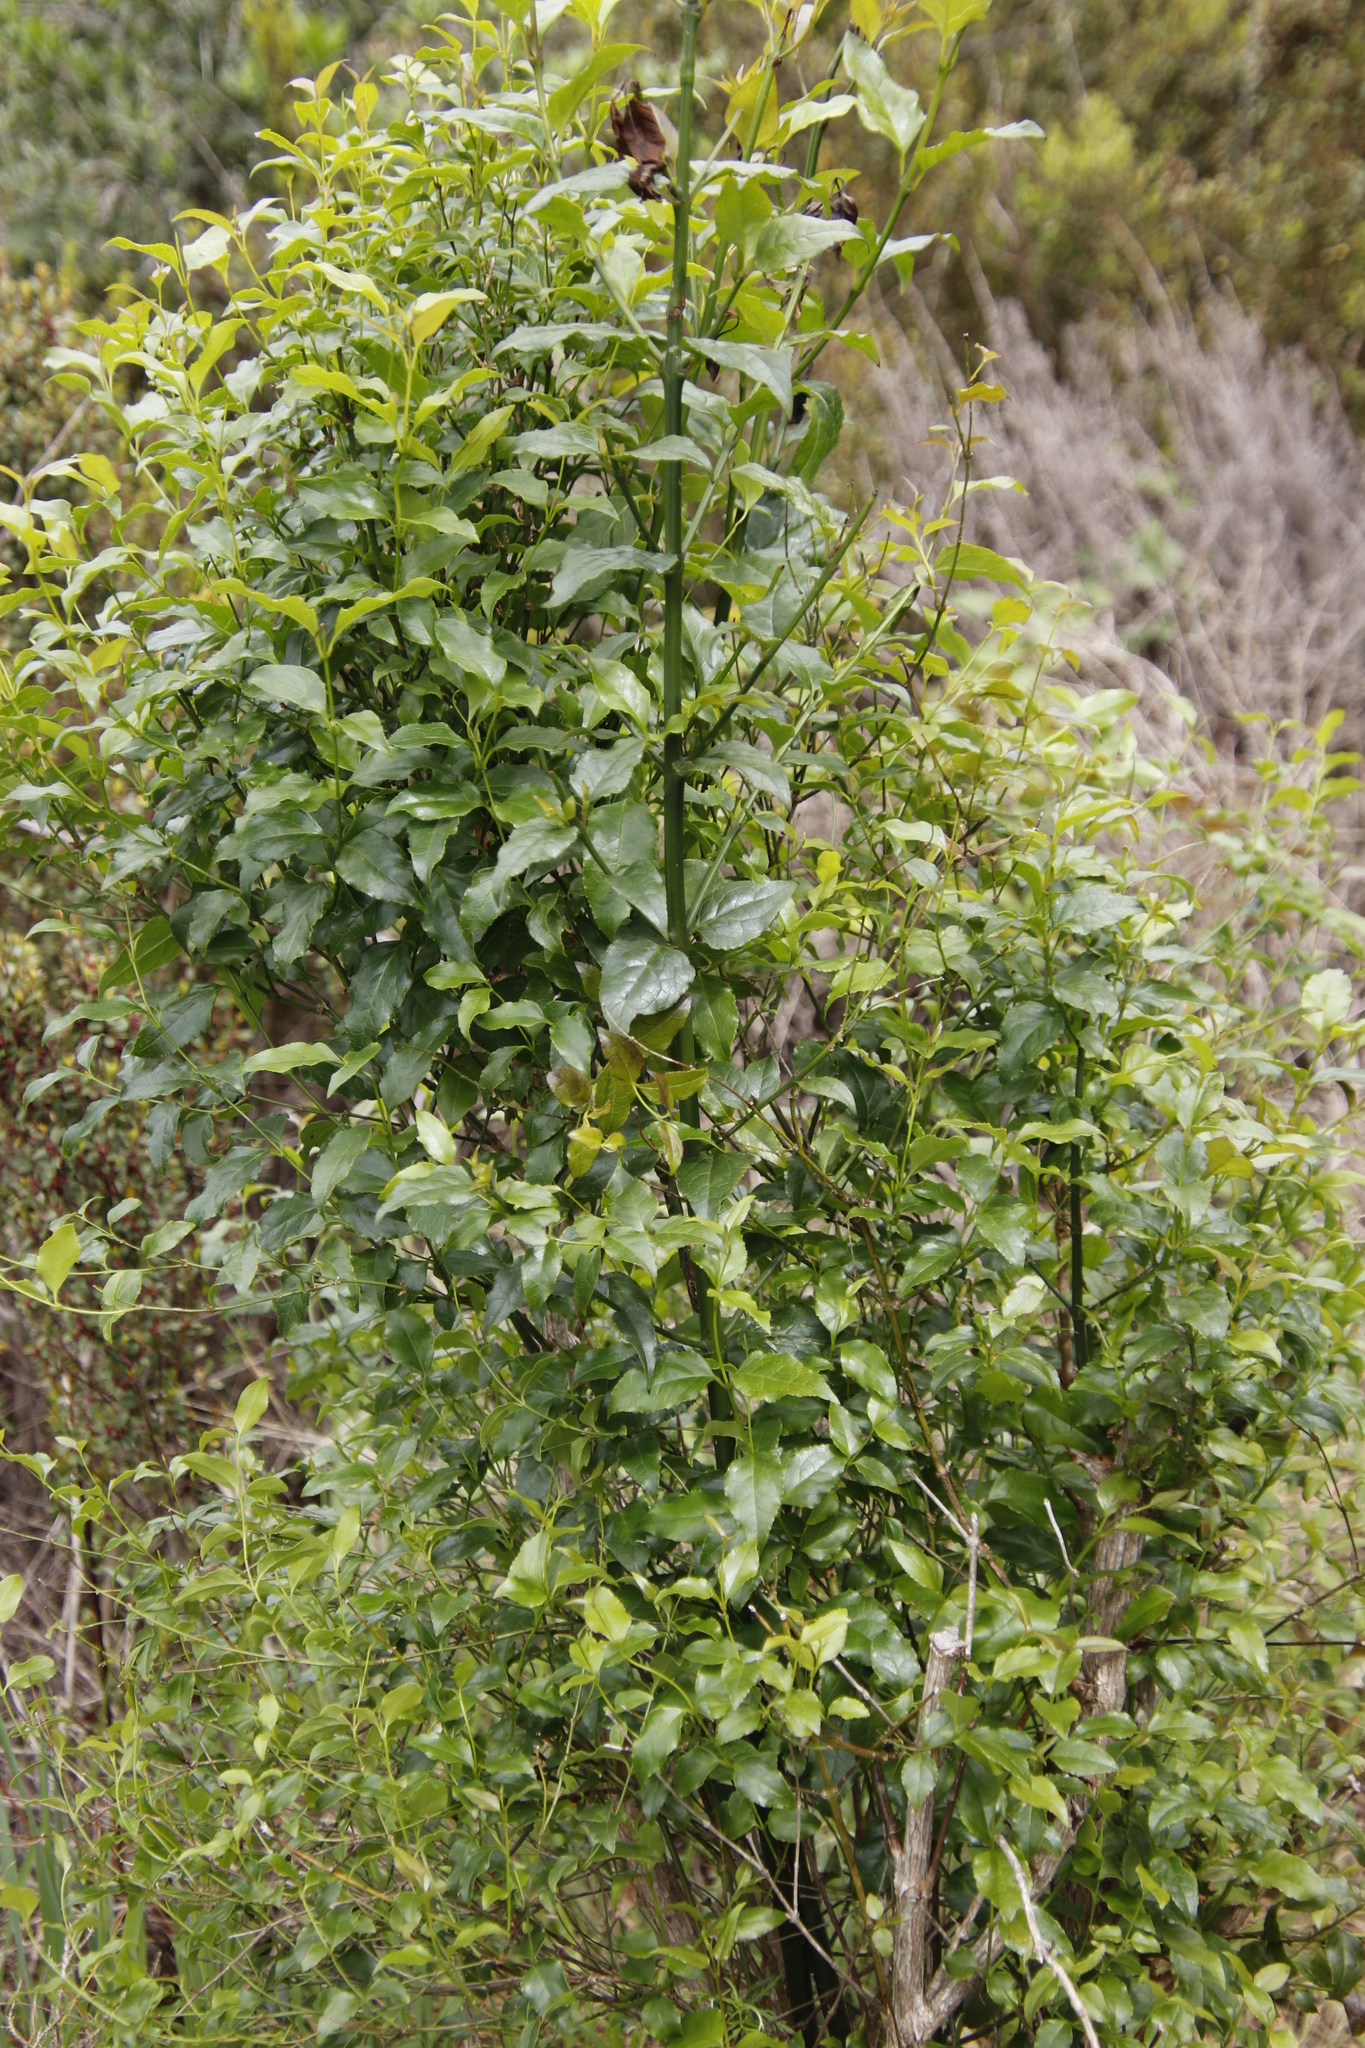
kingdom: Plantae
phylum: Tracheophyta
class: Magnoliopsida
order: Lamiales
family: Stilbaceae
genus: Halleria
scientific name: Halleria lucida
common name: Tree fuschia
